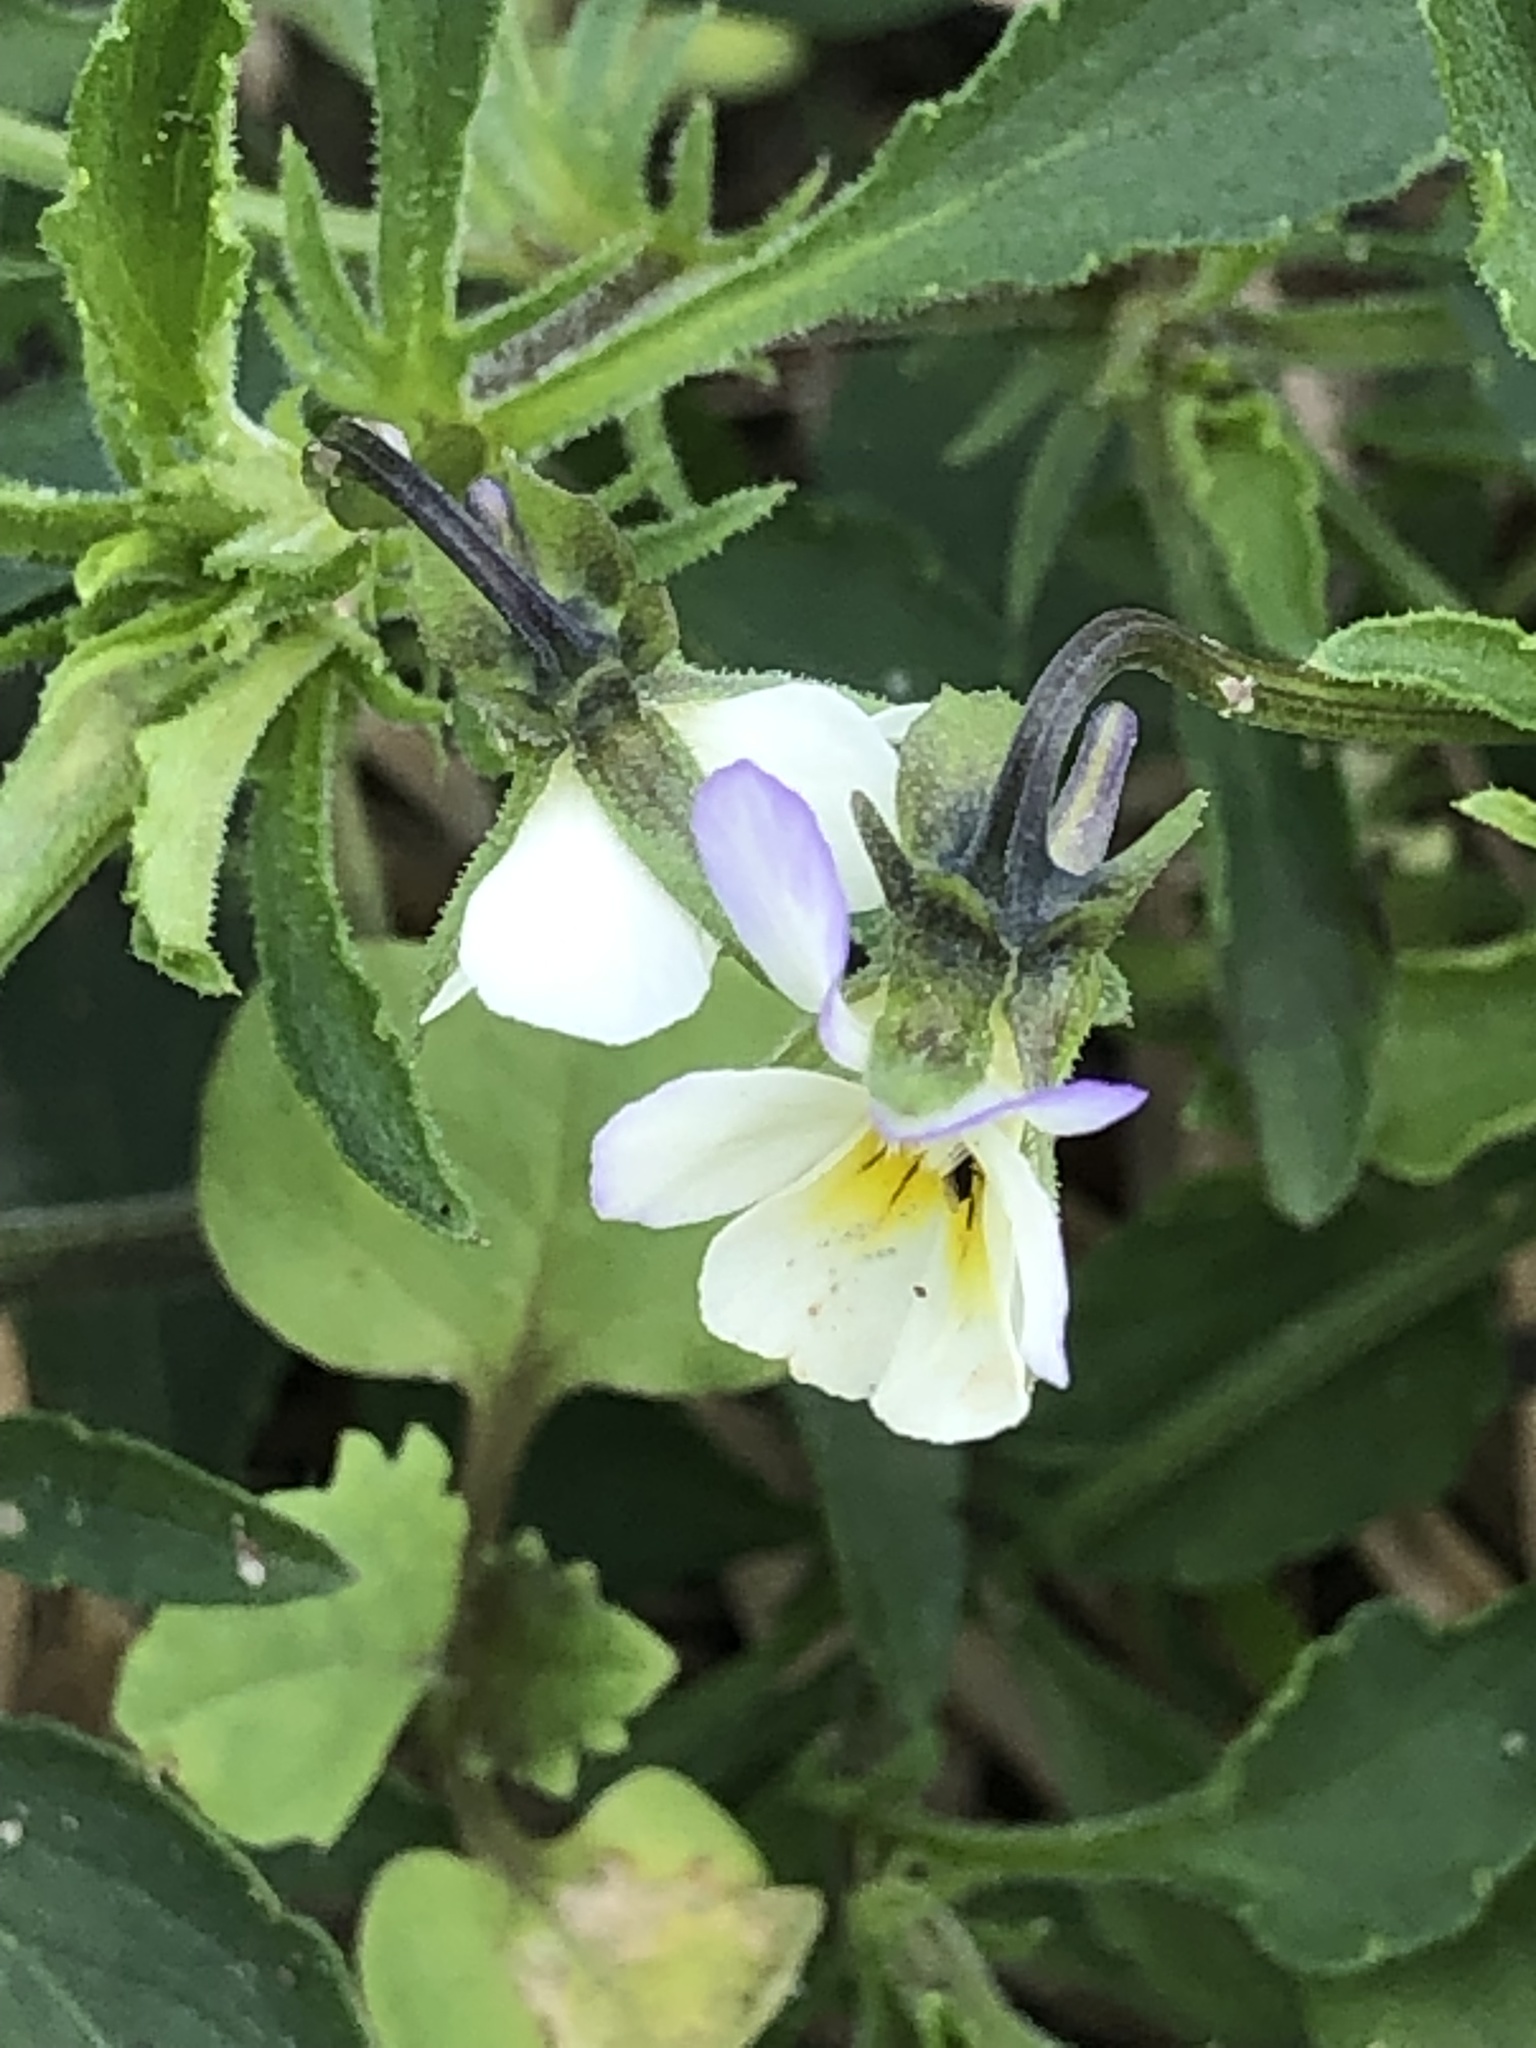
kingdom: Plantae
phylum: Tracheophyta
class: Magnoliopsida
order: Malpighiales
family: Violaceae
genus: Viola
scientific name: Viola arvensis
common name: Field pansy
